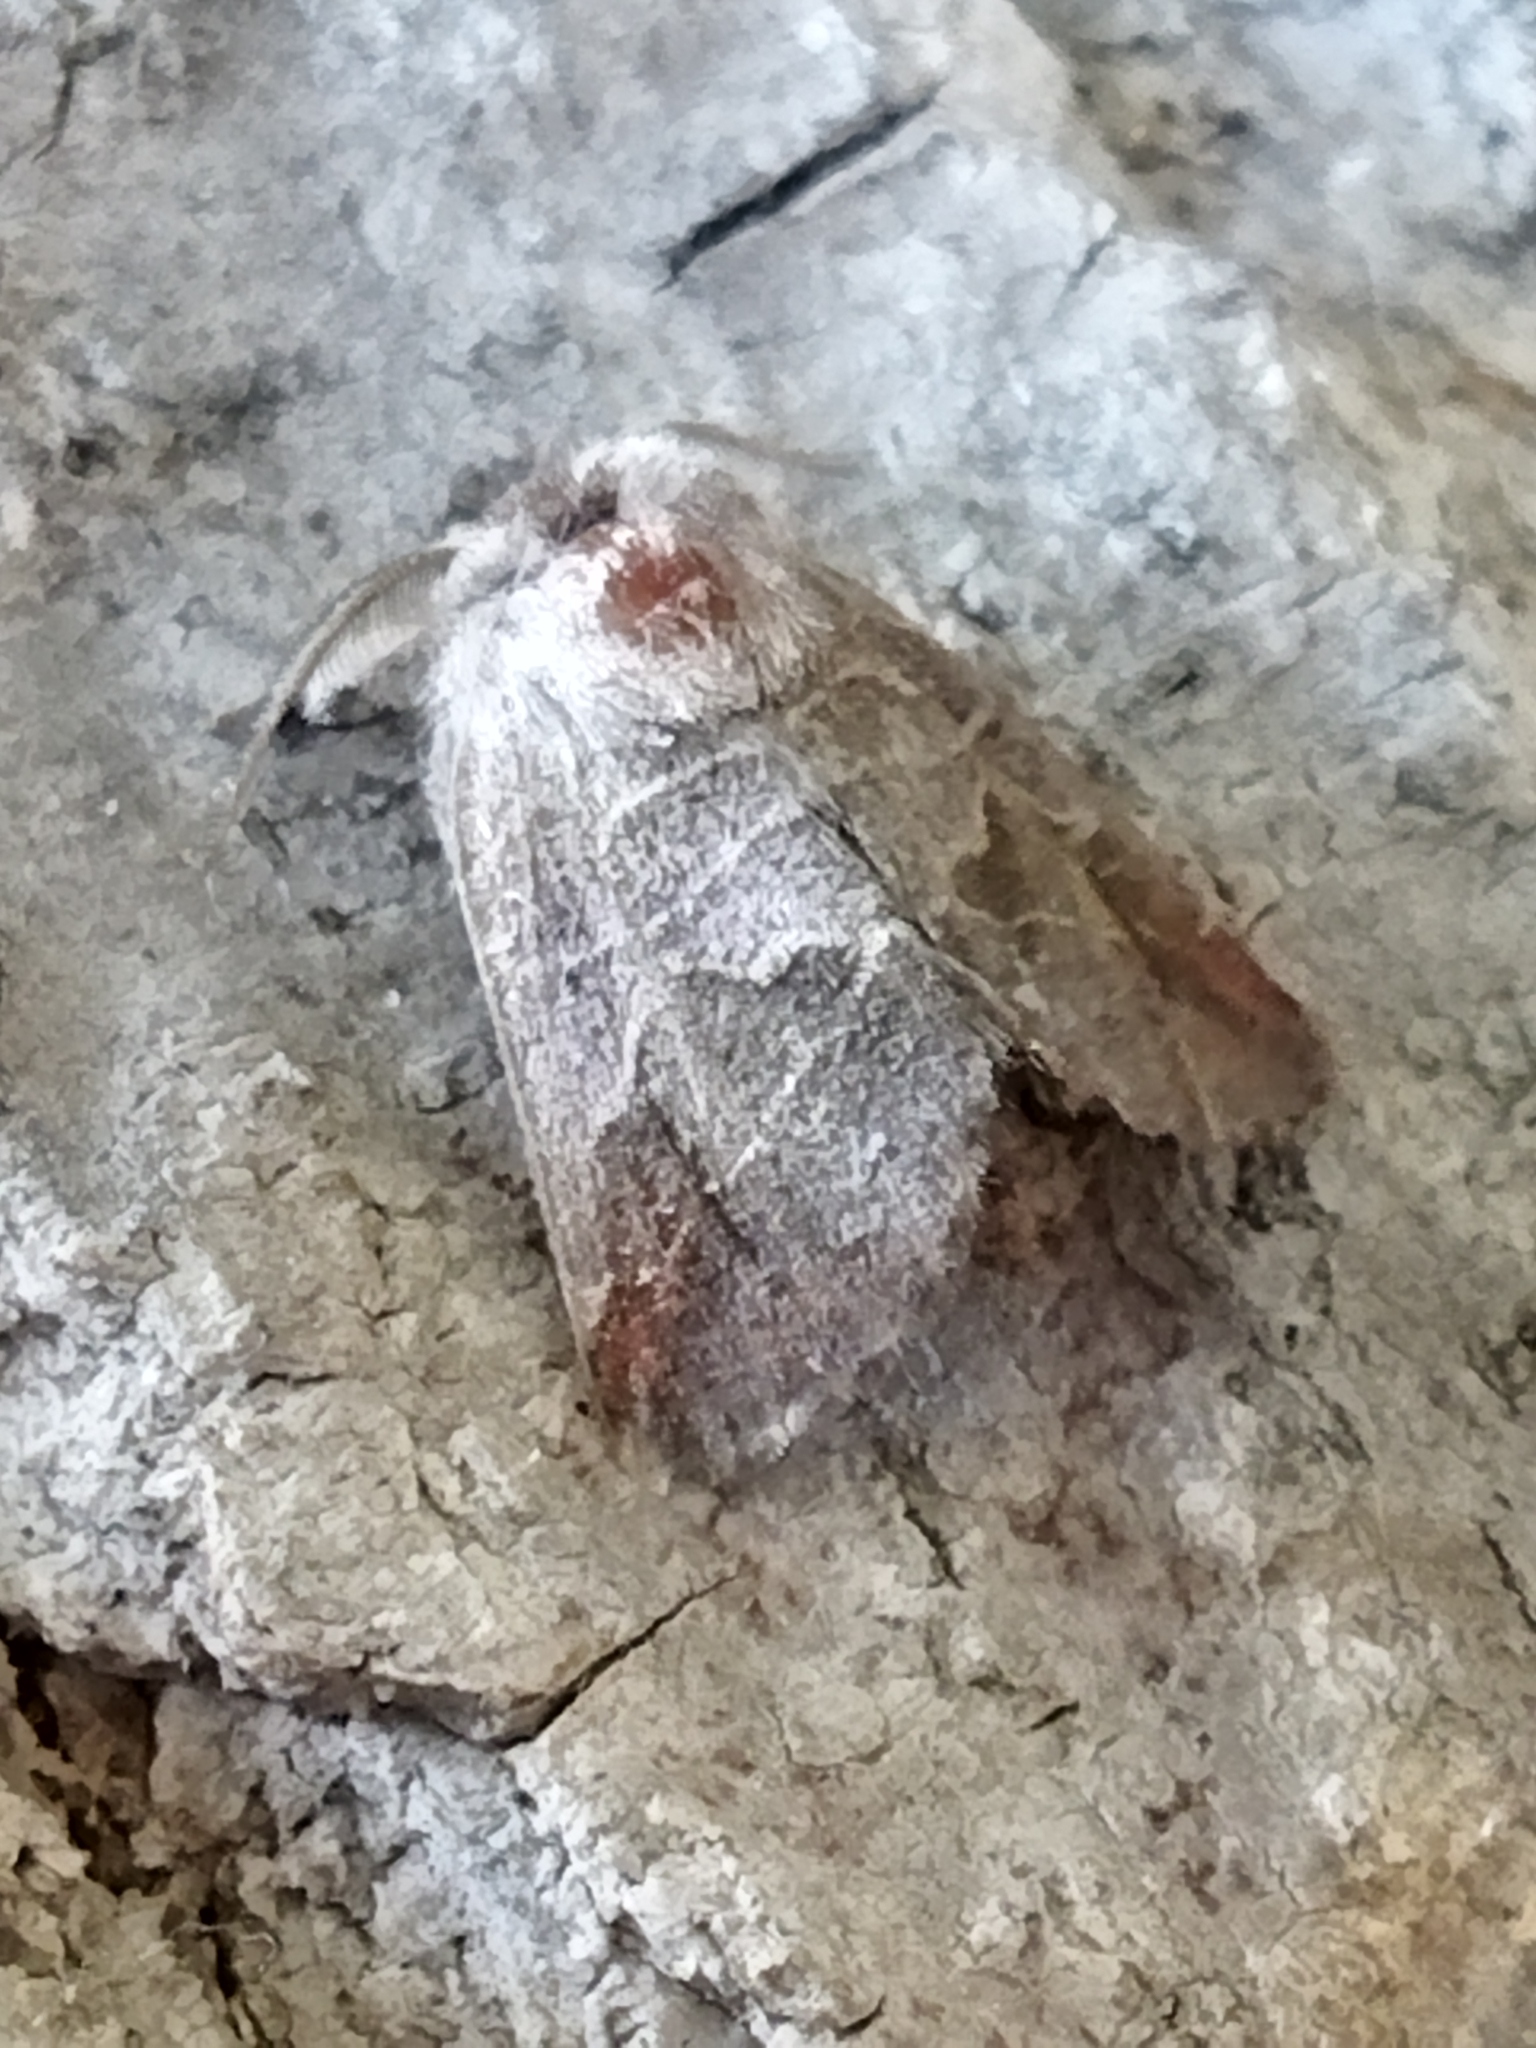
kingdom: Animalia
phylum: Arthropoda
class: Insecta
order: Lepidoptera
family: Notodontidae
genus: Clostera
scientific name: Clostera pigra
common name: Small chocolate-tip
